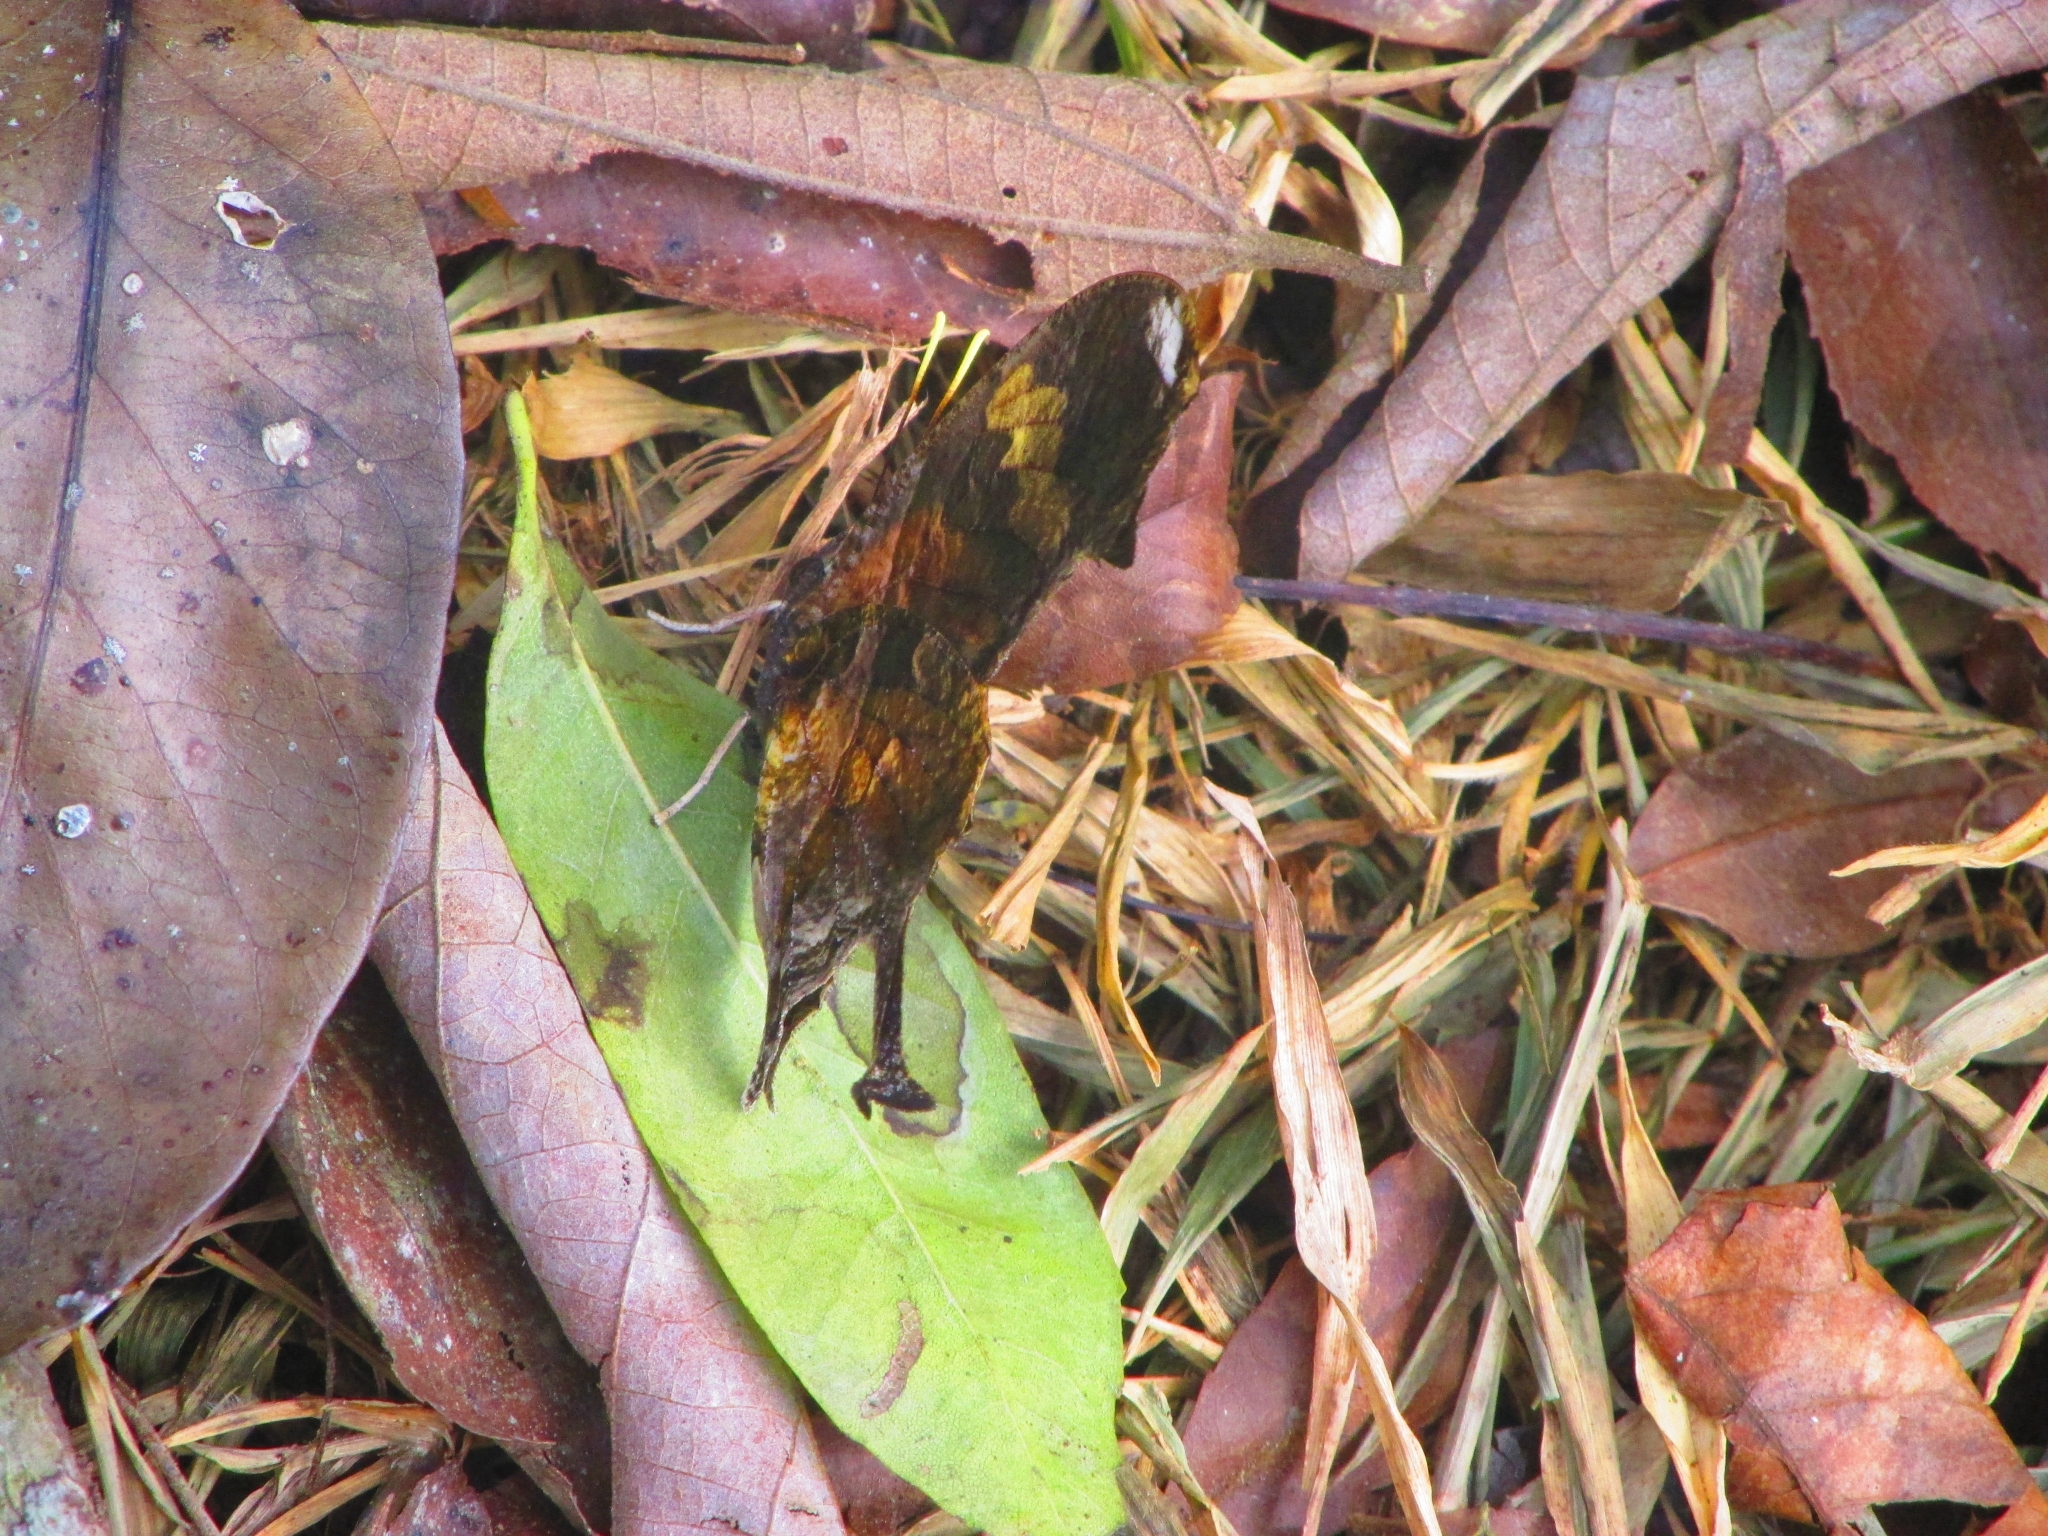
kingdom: Animalia
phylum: Arthropoda
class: Insecta
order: Lepidoptera
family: Nymphalidae
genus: Consul
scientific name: Consul fabius
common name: Tiger leafwing
